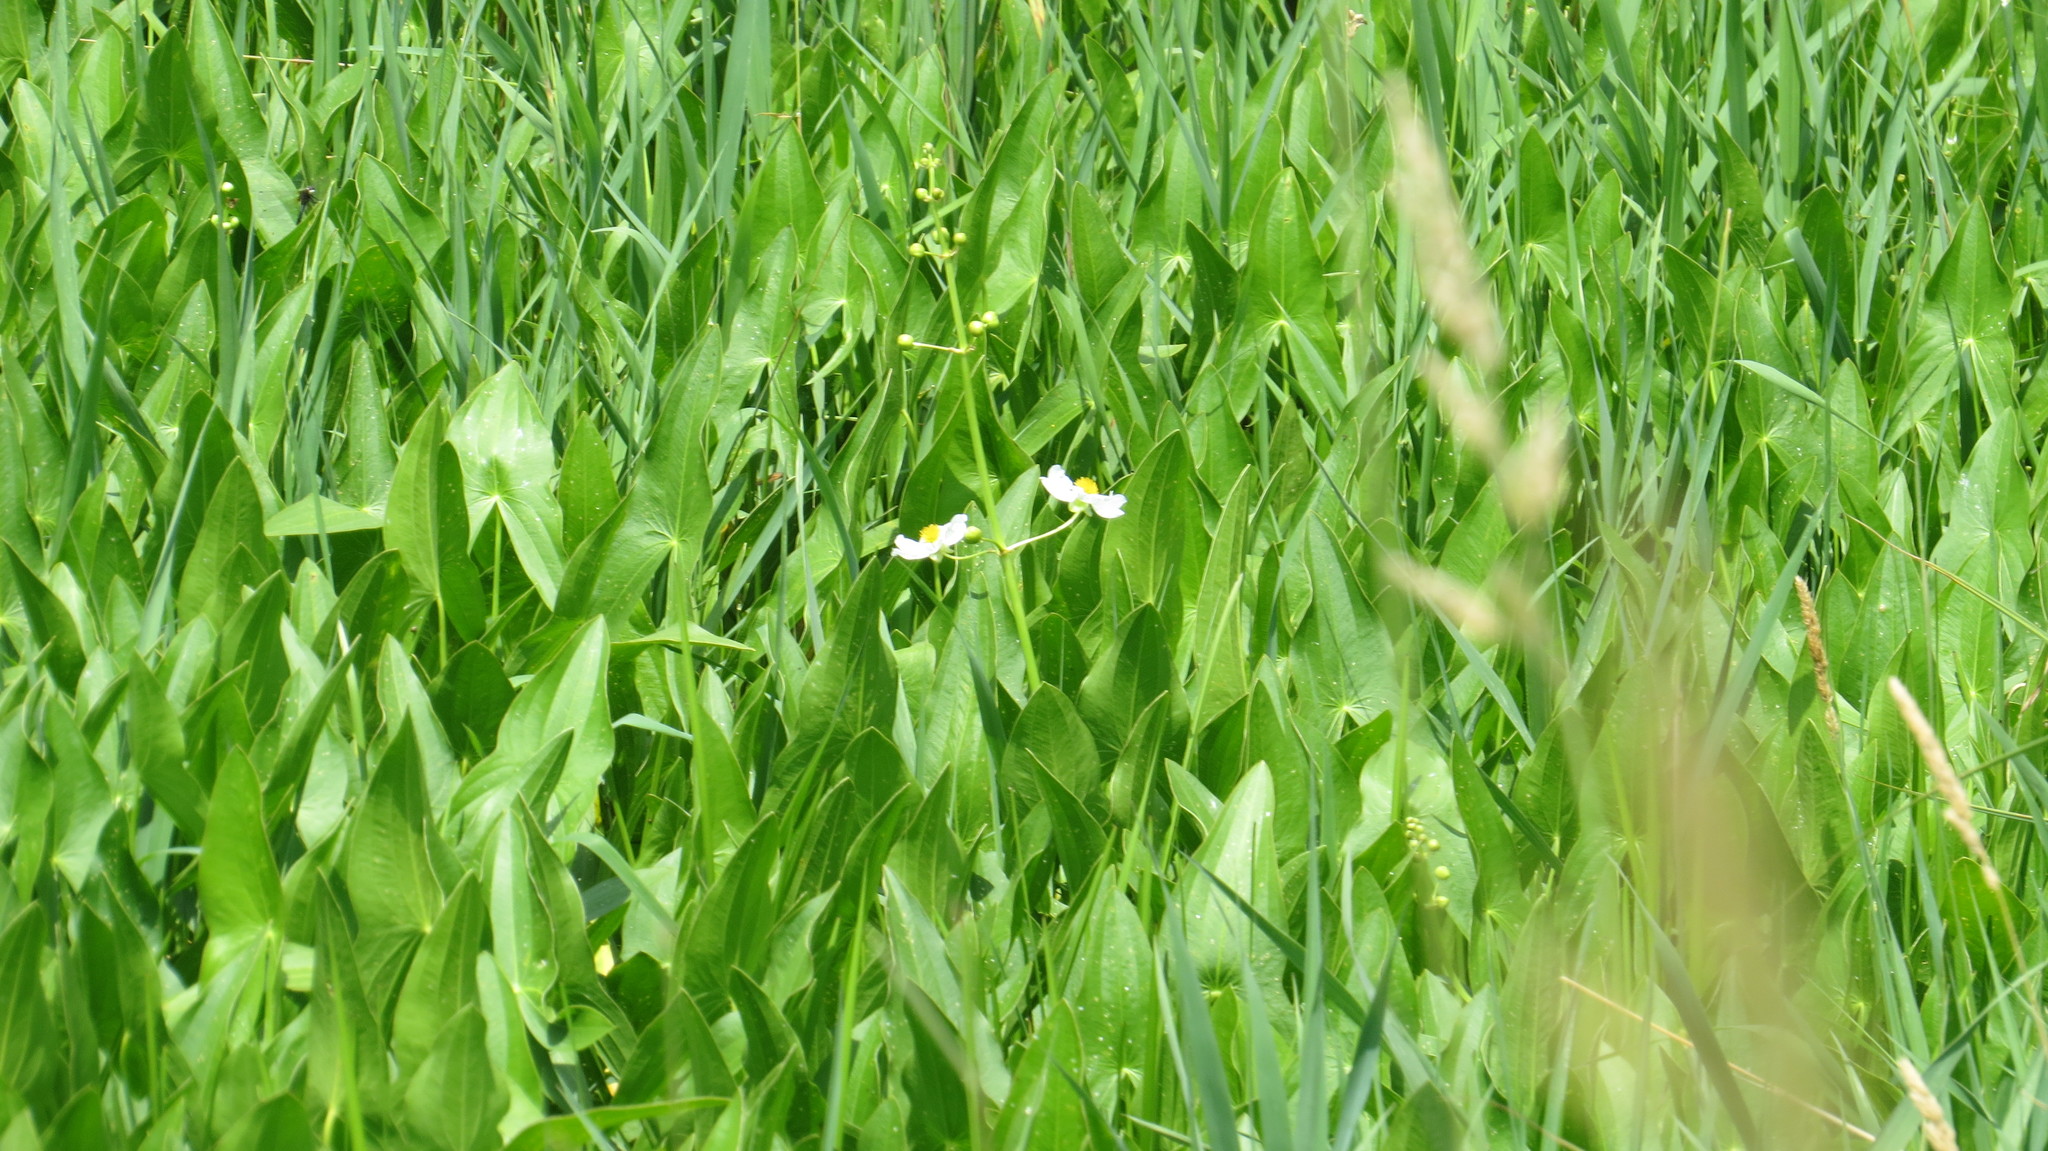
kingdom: Plantae
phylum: Tracheophyta
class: Liliopsida
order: Alismatales
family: Alismataceae
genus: Sagittaria
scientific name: Sagittaria latifolia
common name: Duck-potato
